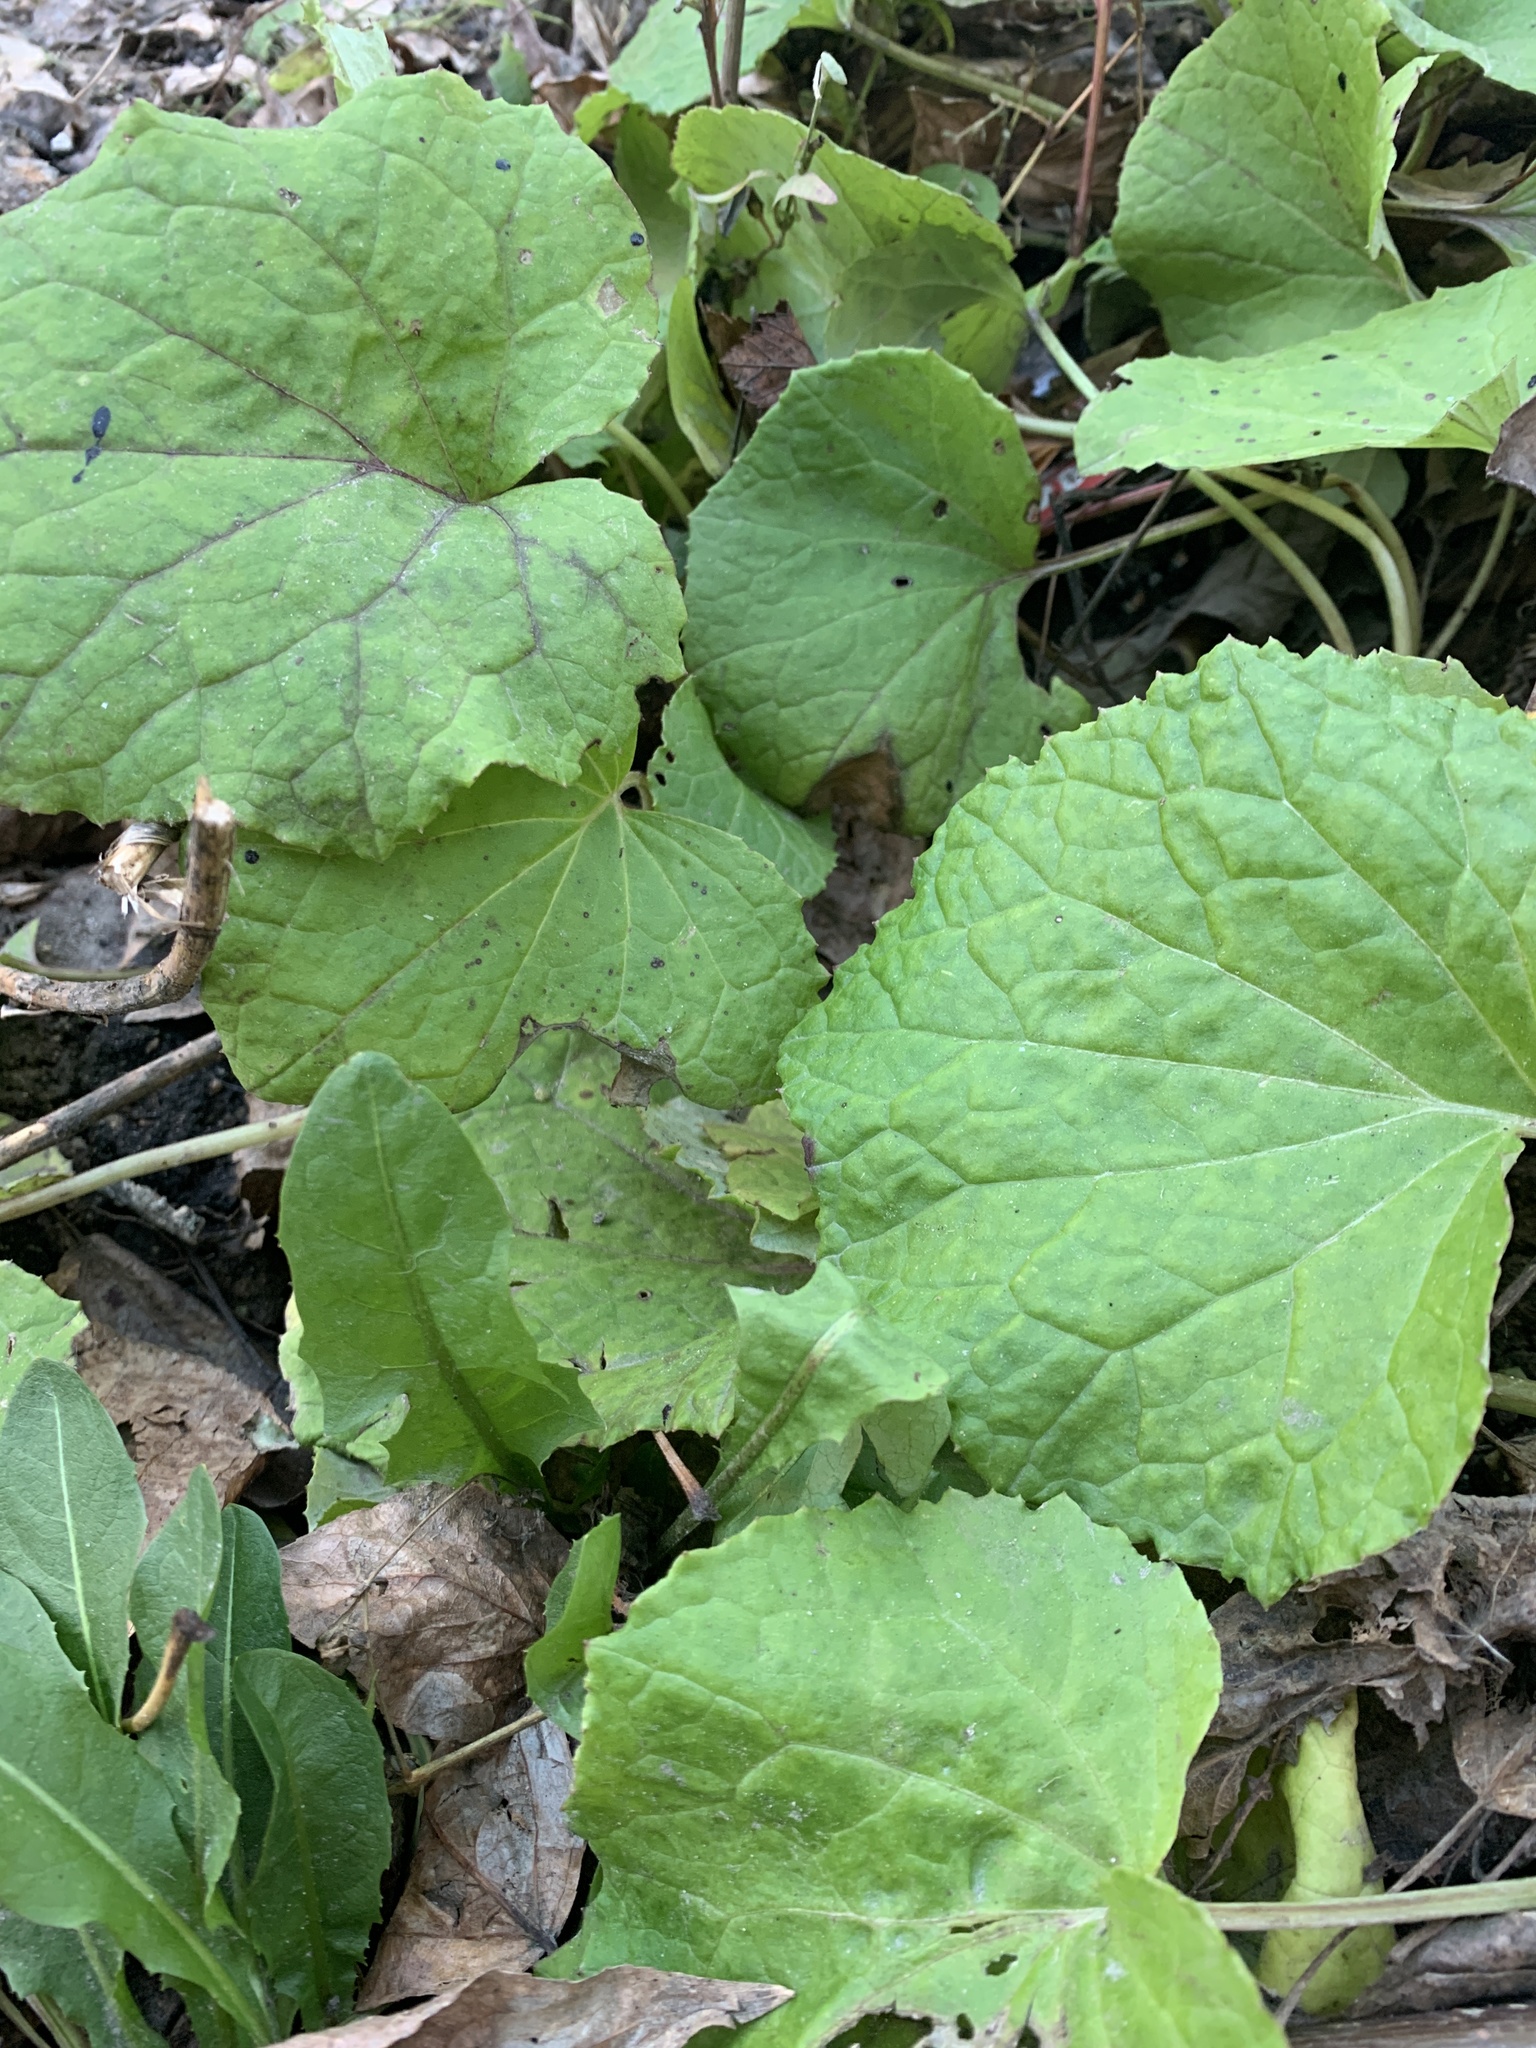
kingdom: Plantae
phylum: Tracheophyta
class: Magnoliopsida
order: Asterales
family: Asteraceae
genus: Tussilago
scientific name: Tussilago farfara
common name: Coltsfoot
